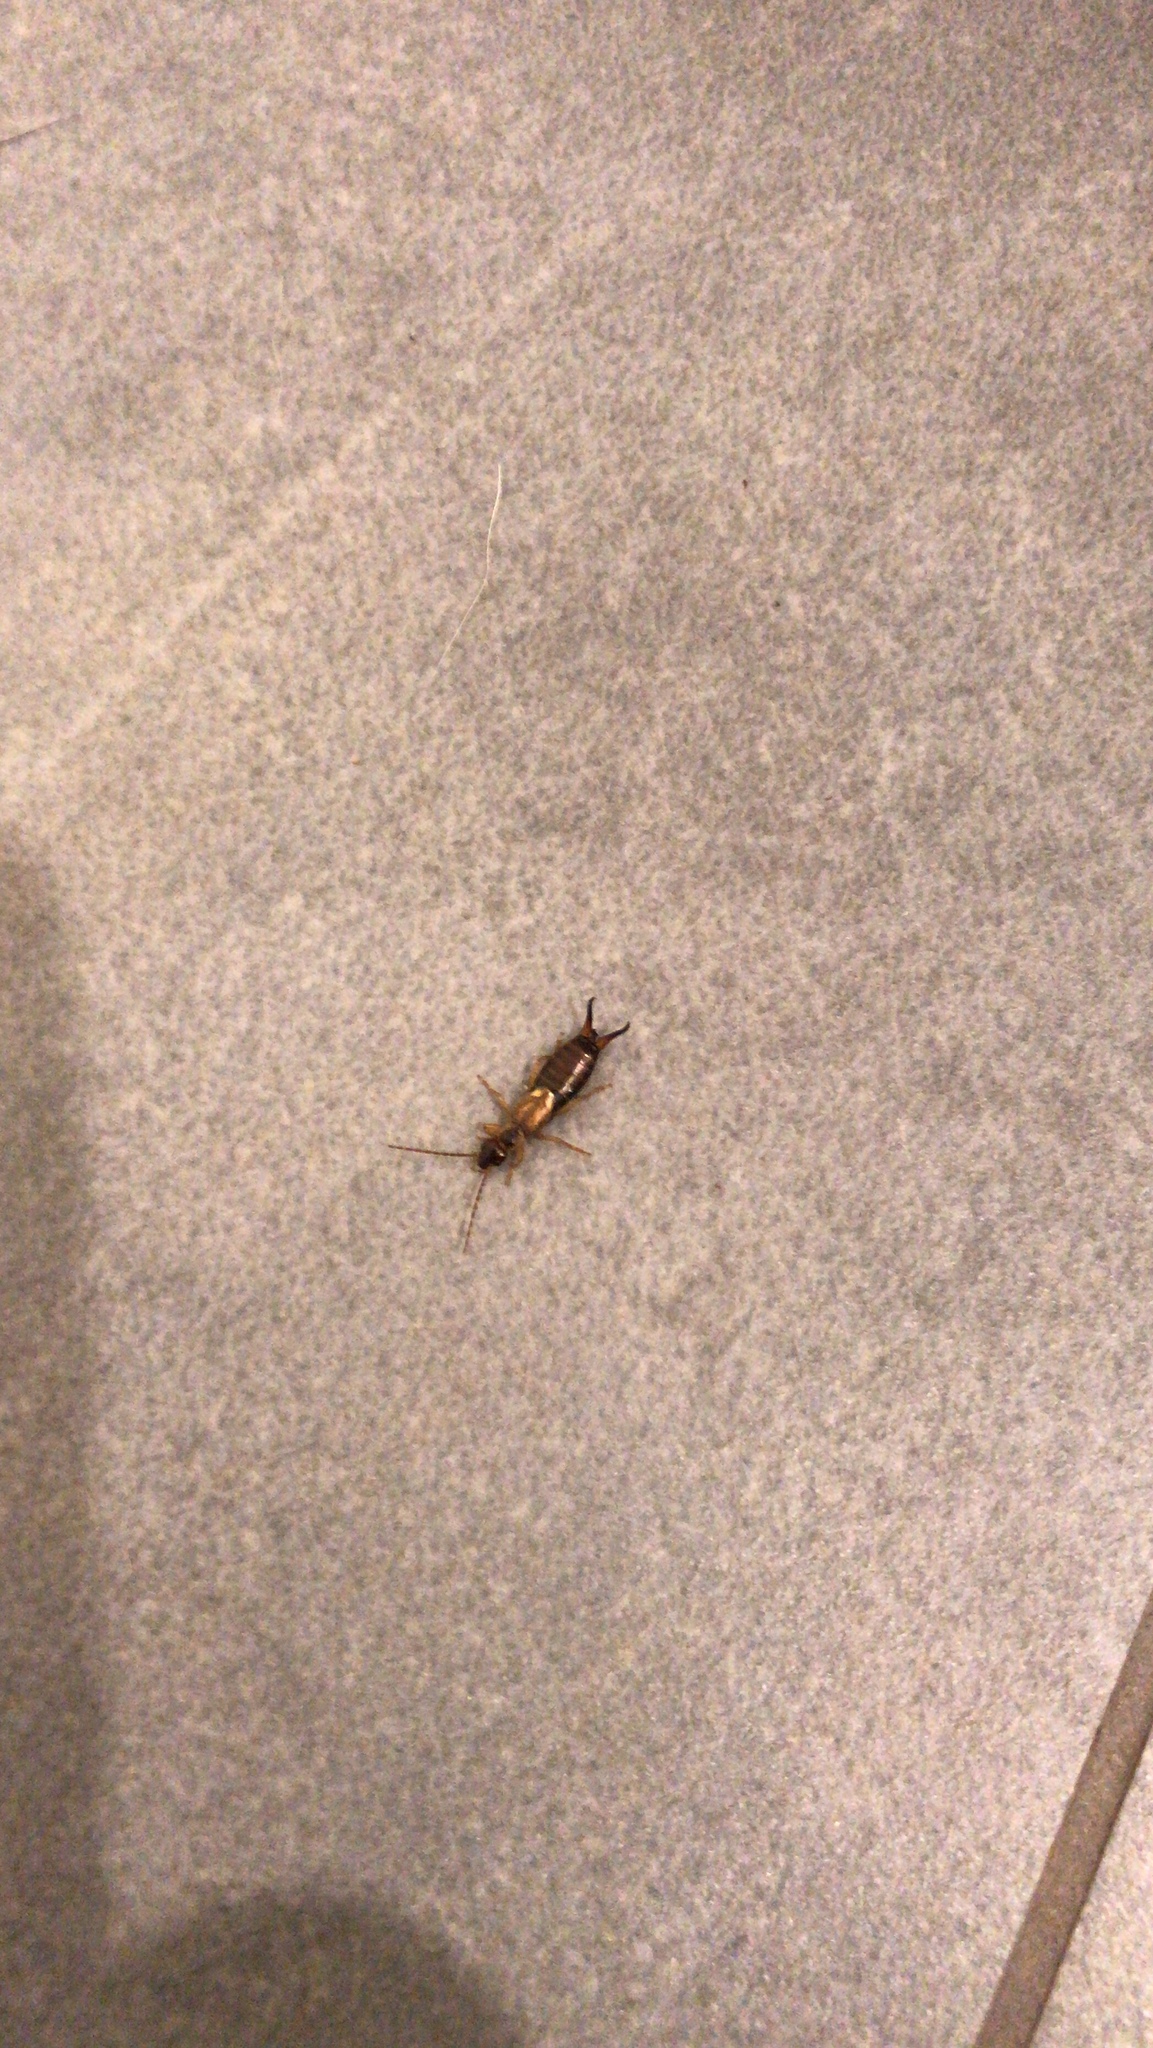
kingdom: Animalia
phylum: Arthropoda
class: Insecta
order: Dermaptera
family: Forficulidae
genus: Forficula
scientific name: Forficula
